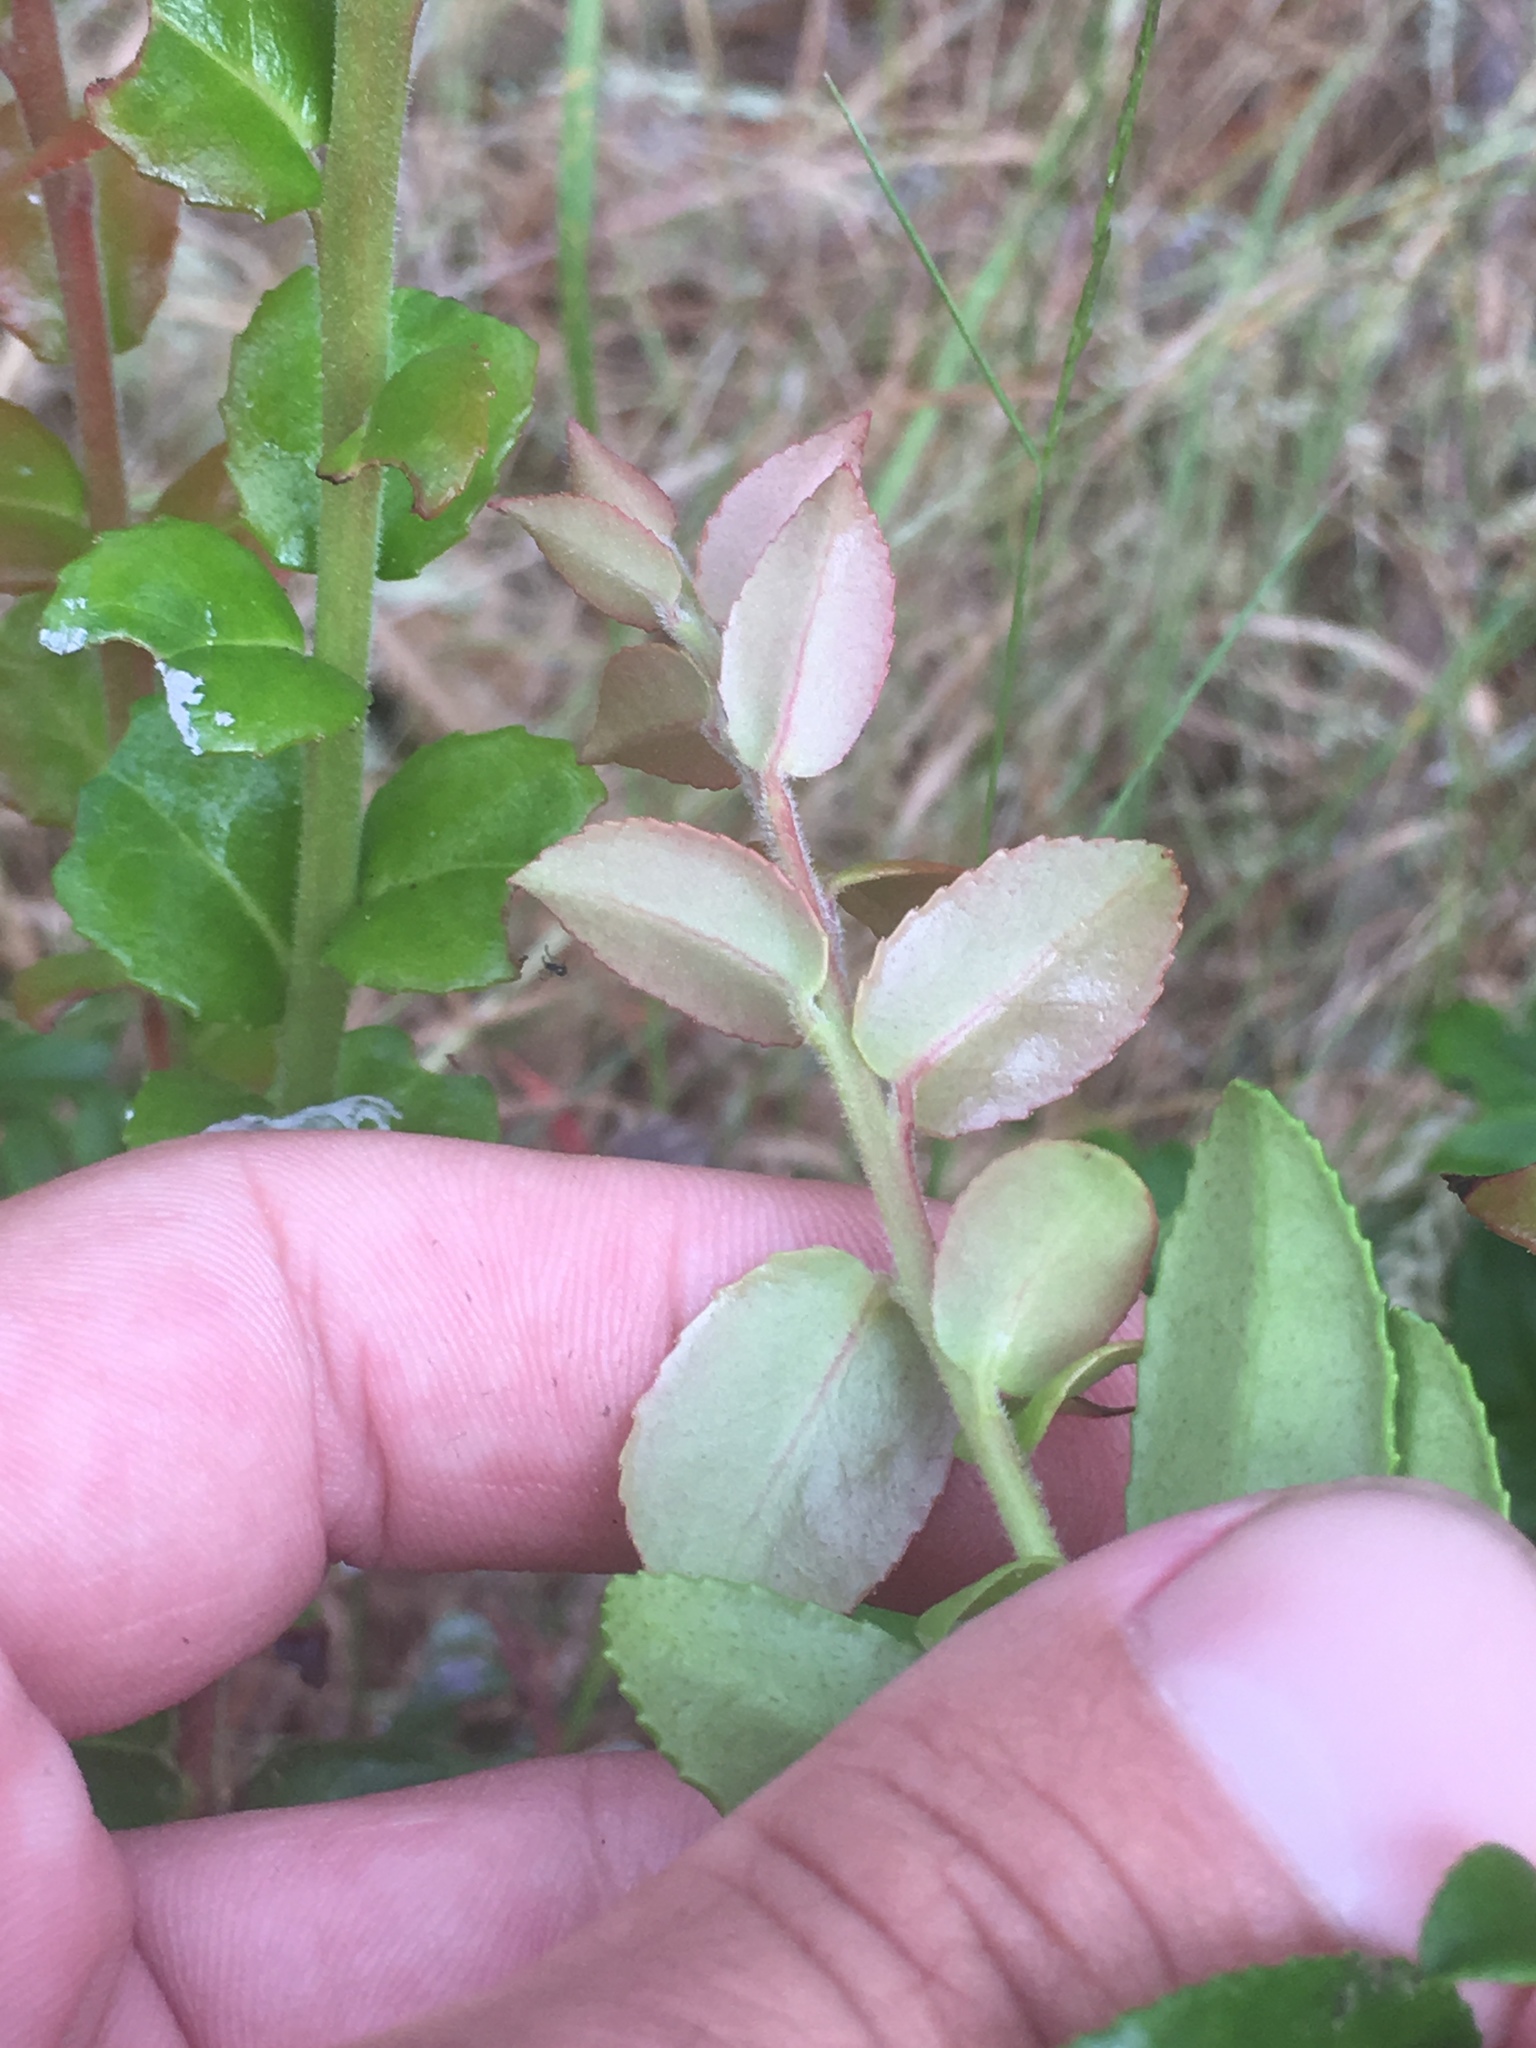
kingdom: Plantae
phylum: Tracheophyta
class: Magnoliopsida
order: Ericales
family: Ericaceae
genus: Vaccinium
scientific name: Vaccinium ovatum
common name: California-huckleberry
